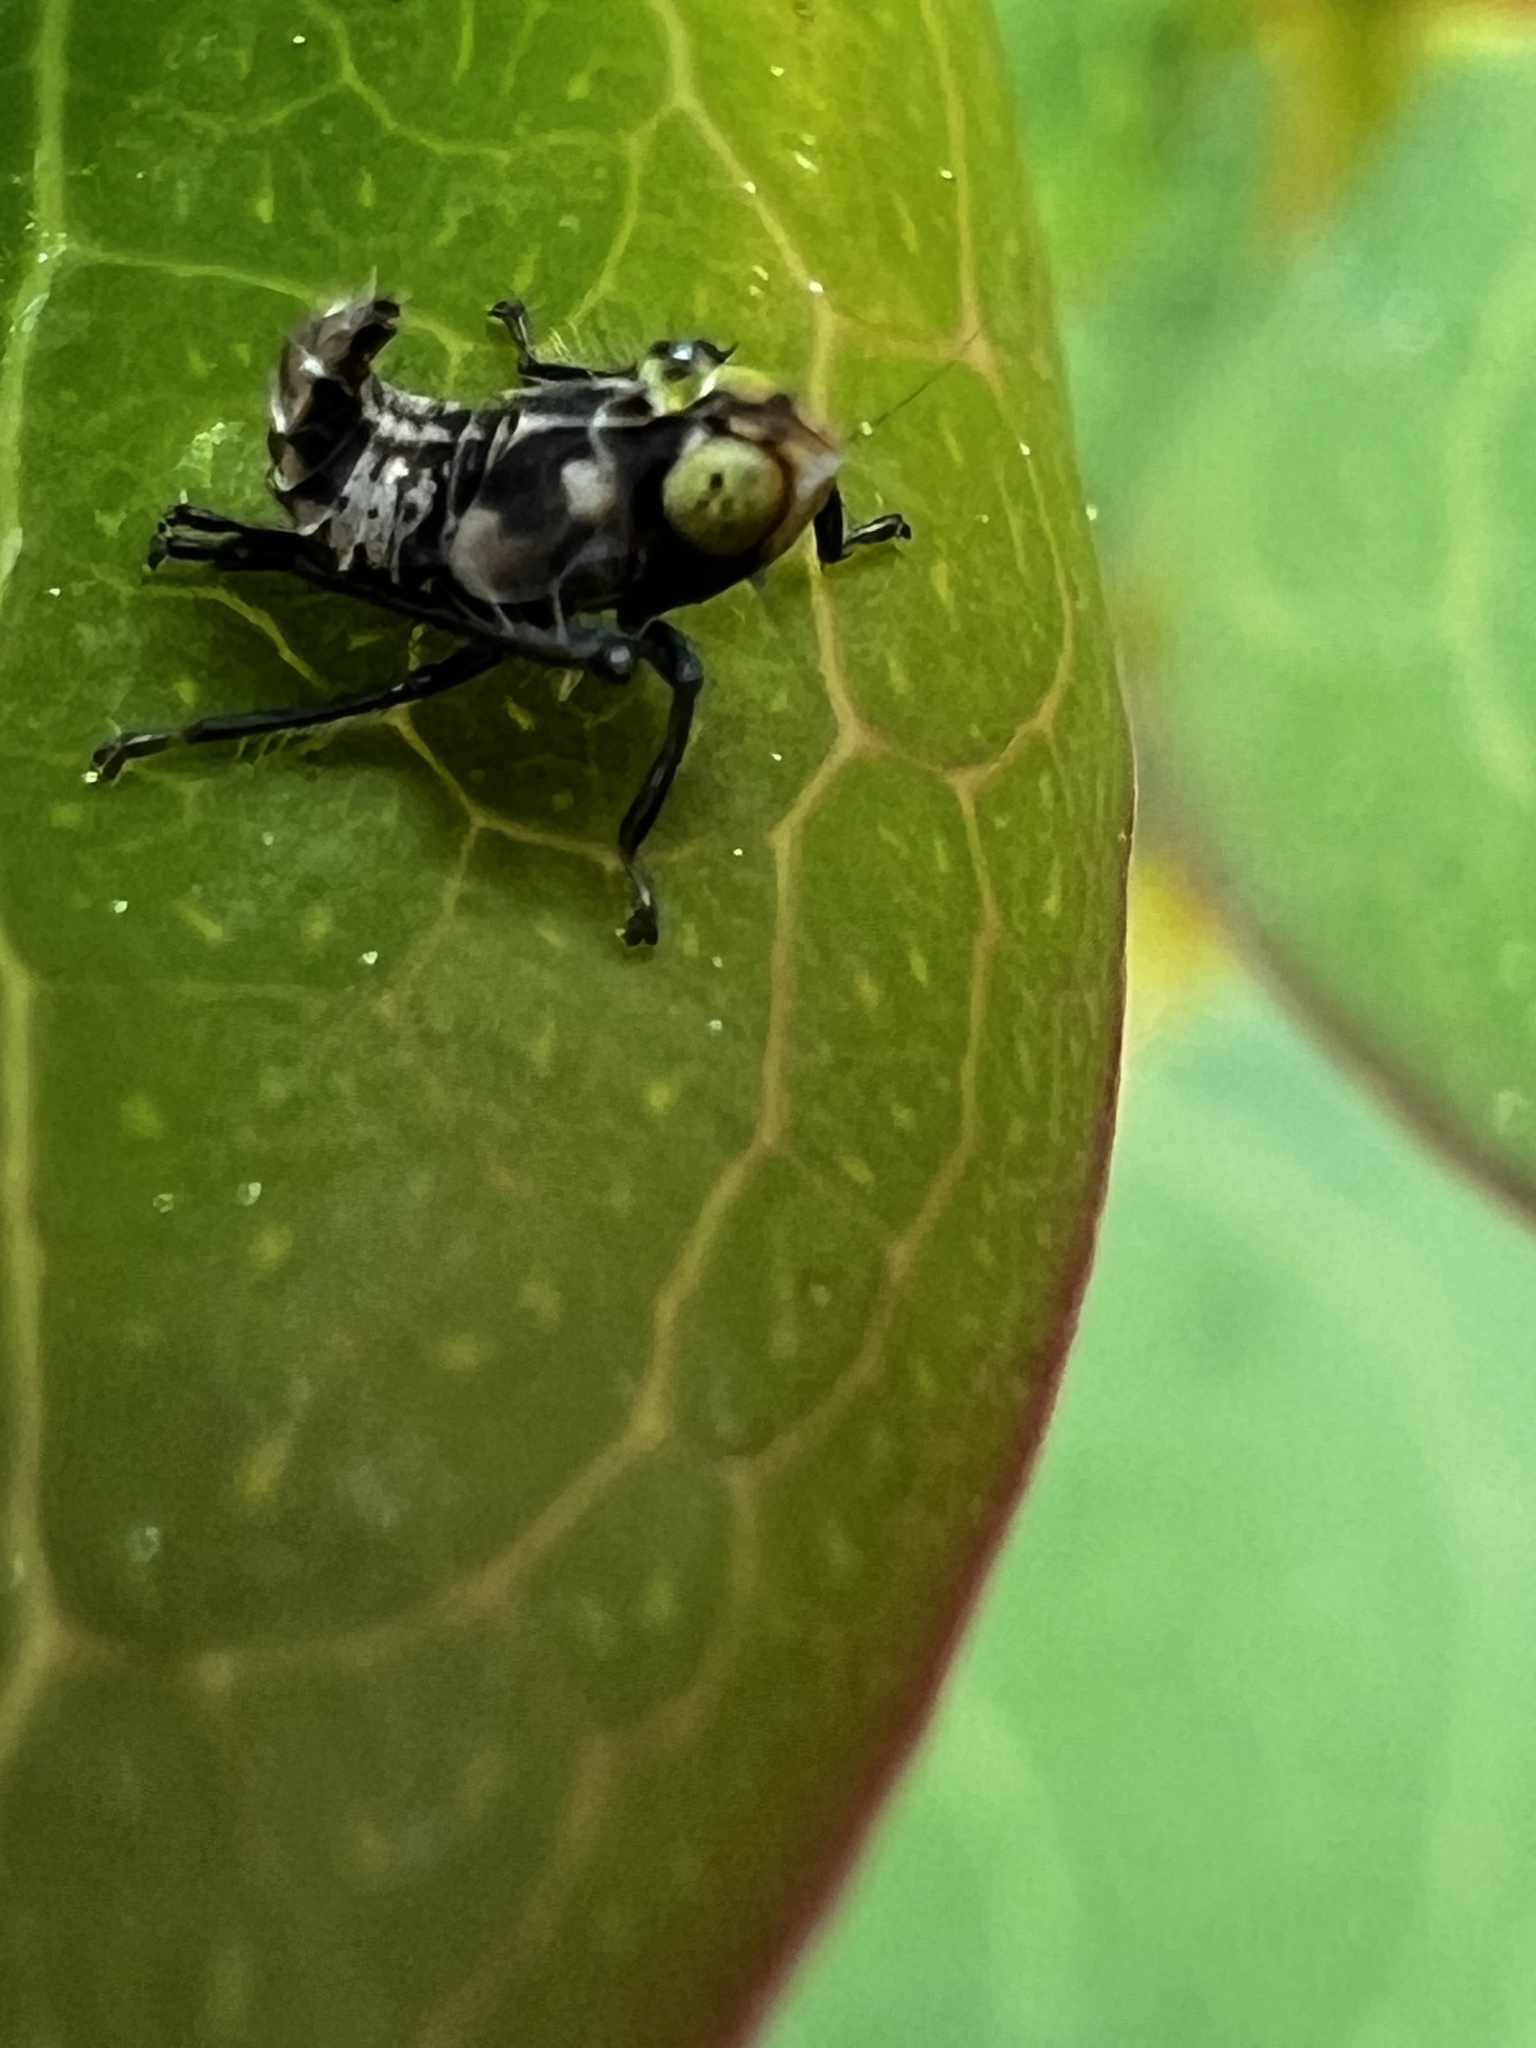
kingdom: Animalia
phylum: Arthropoda
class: Insecta
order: Hemiptera
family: Cicadellidae
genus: Jikradia
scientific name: Jikradia olitoria
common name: Coppery leafhopper
